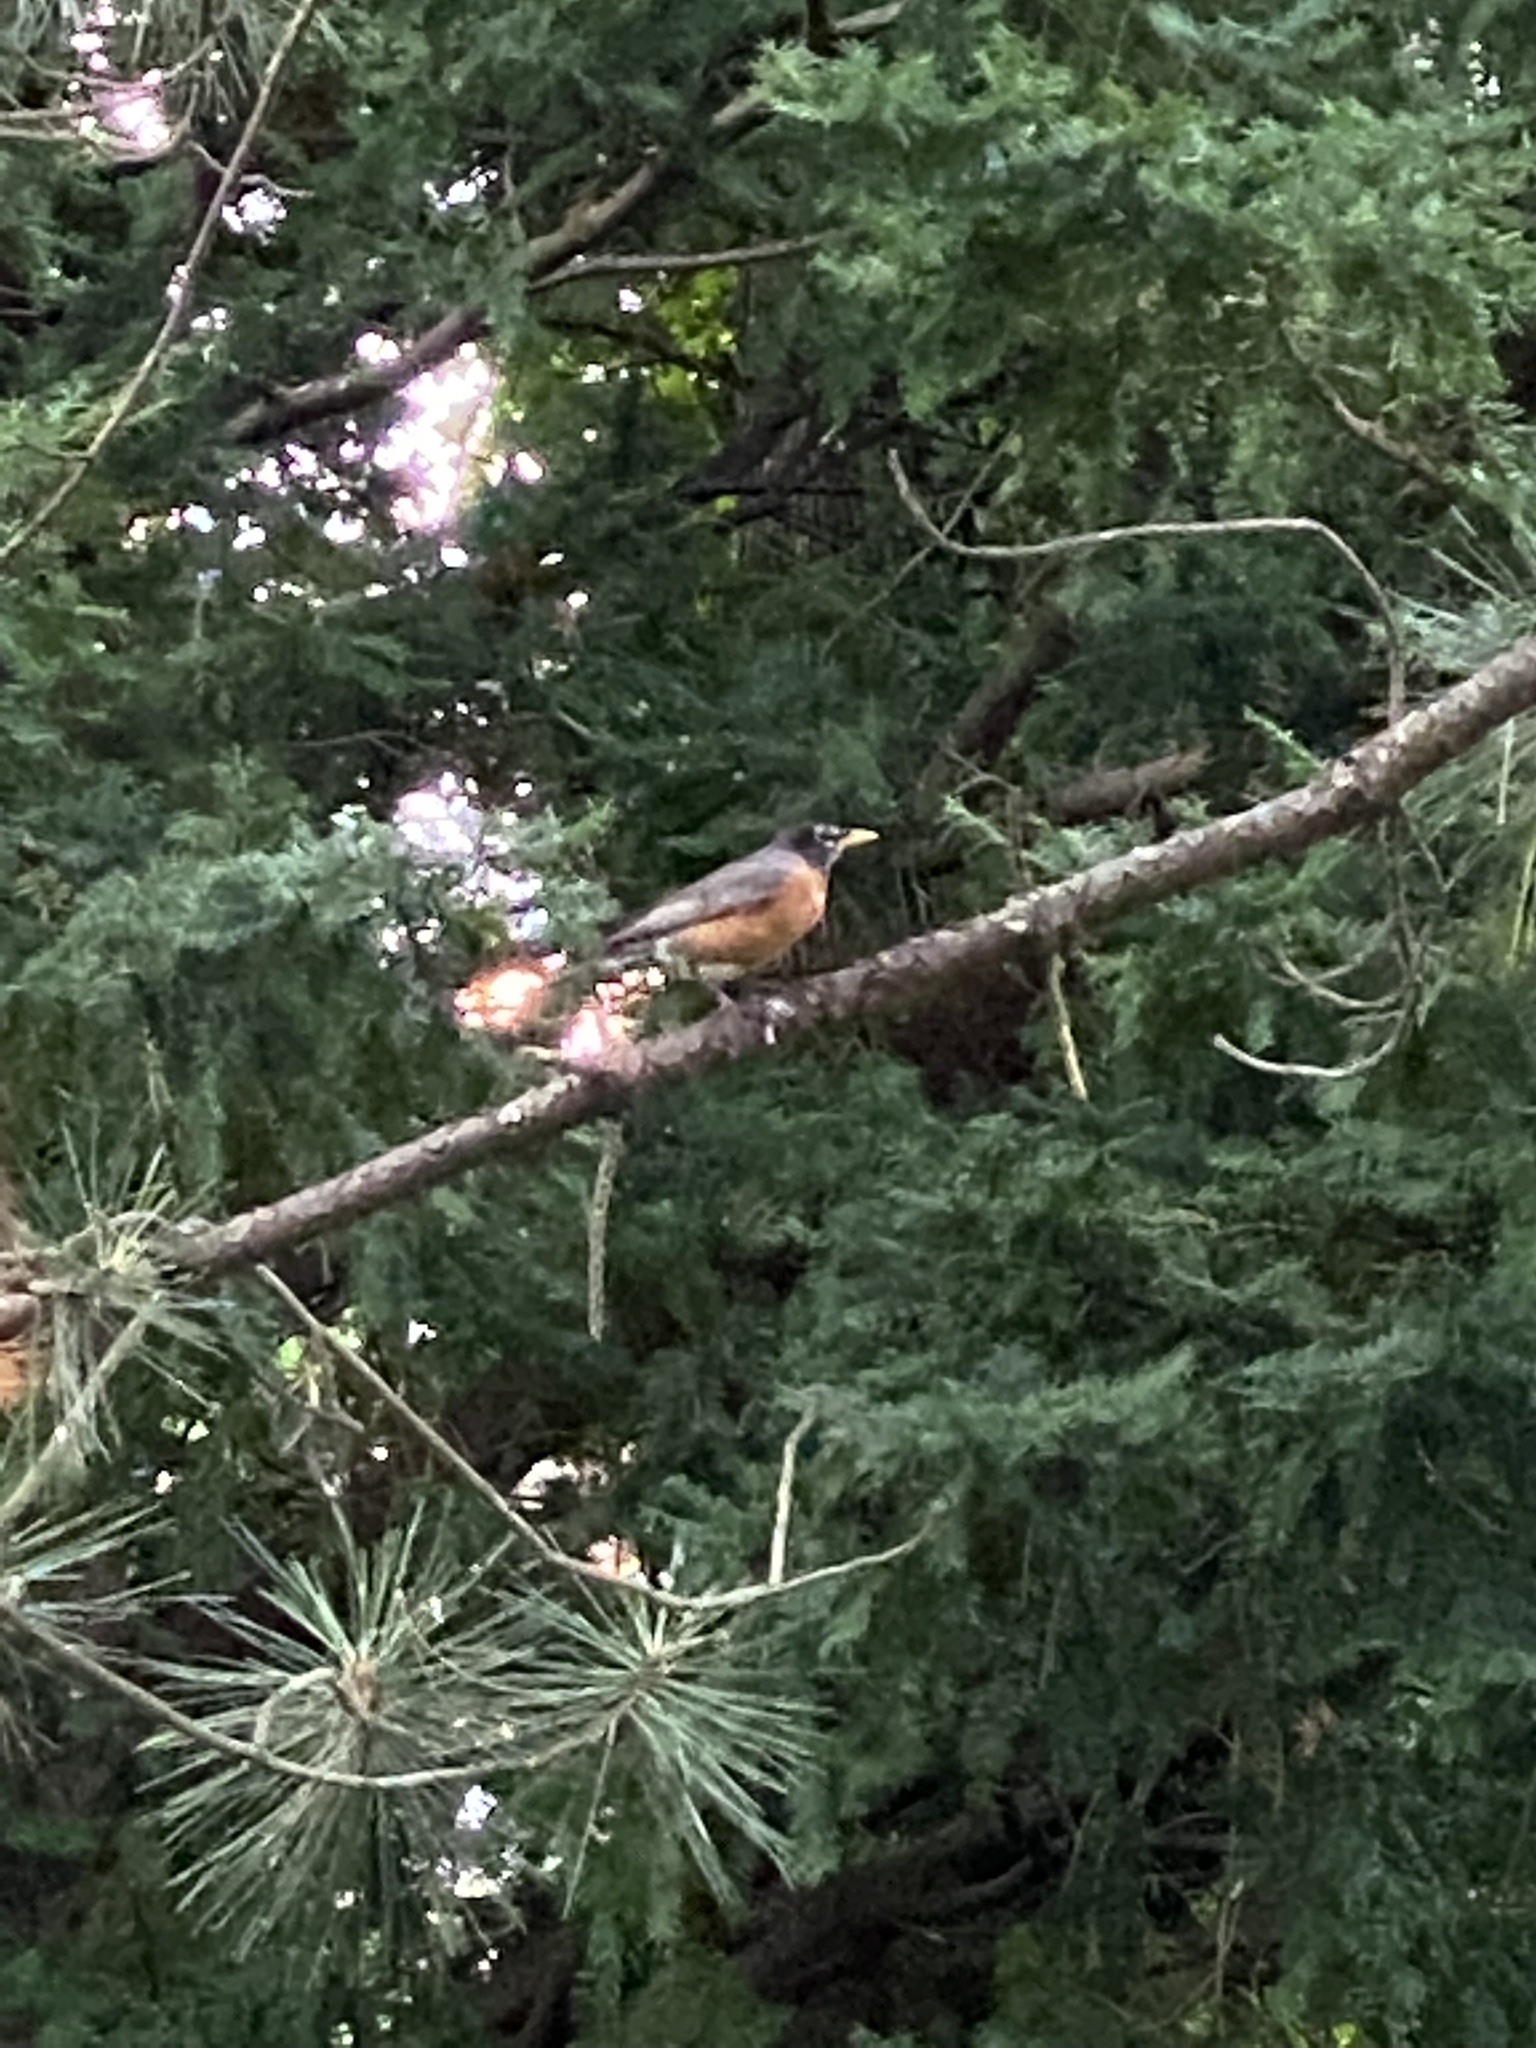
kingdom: Animalia
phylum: Chordata
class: Aves
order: Passeriformes
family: Turdidae
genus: Turdus
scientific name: Turdus migratorius
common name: American robin
